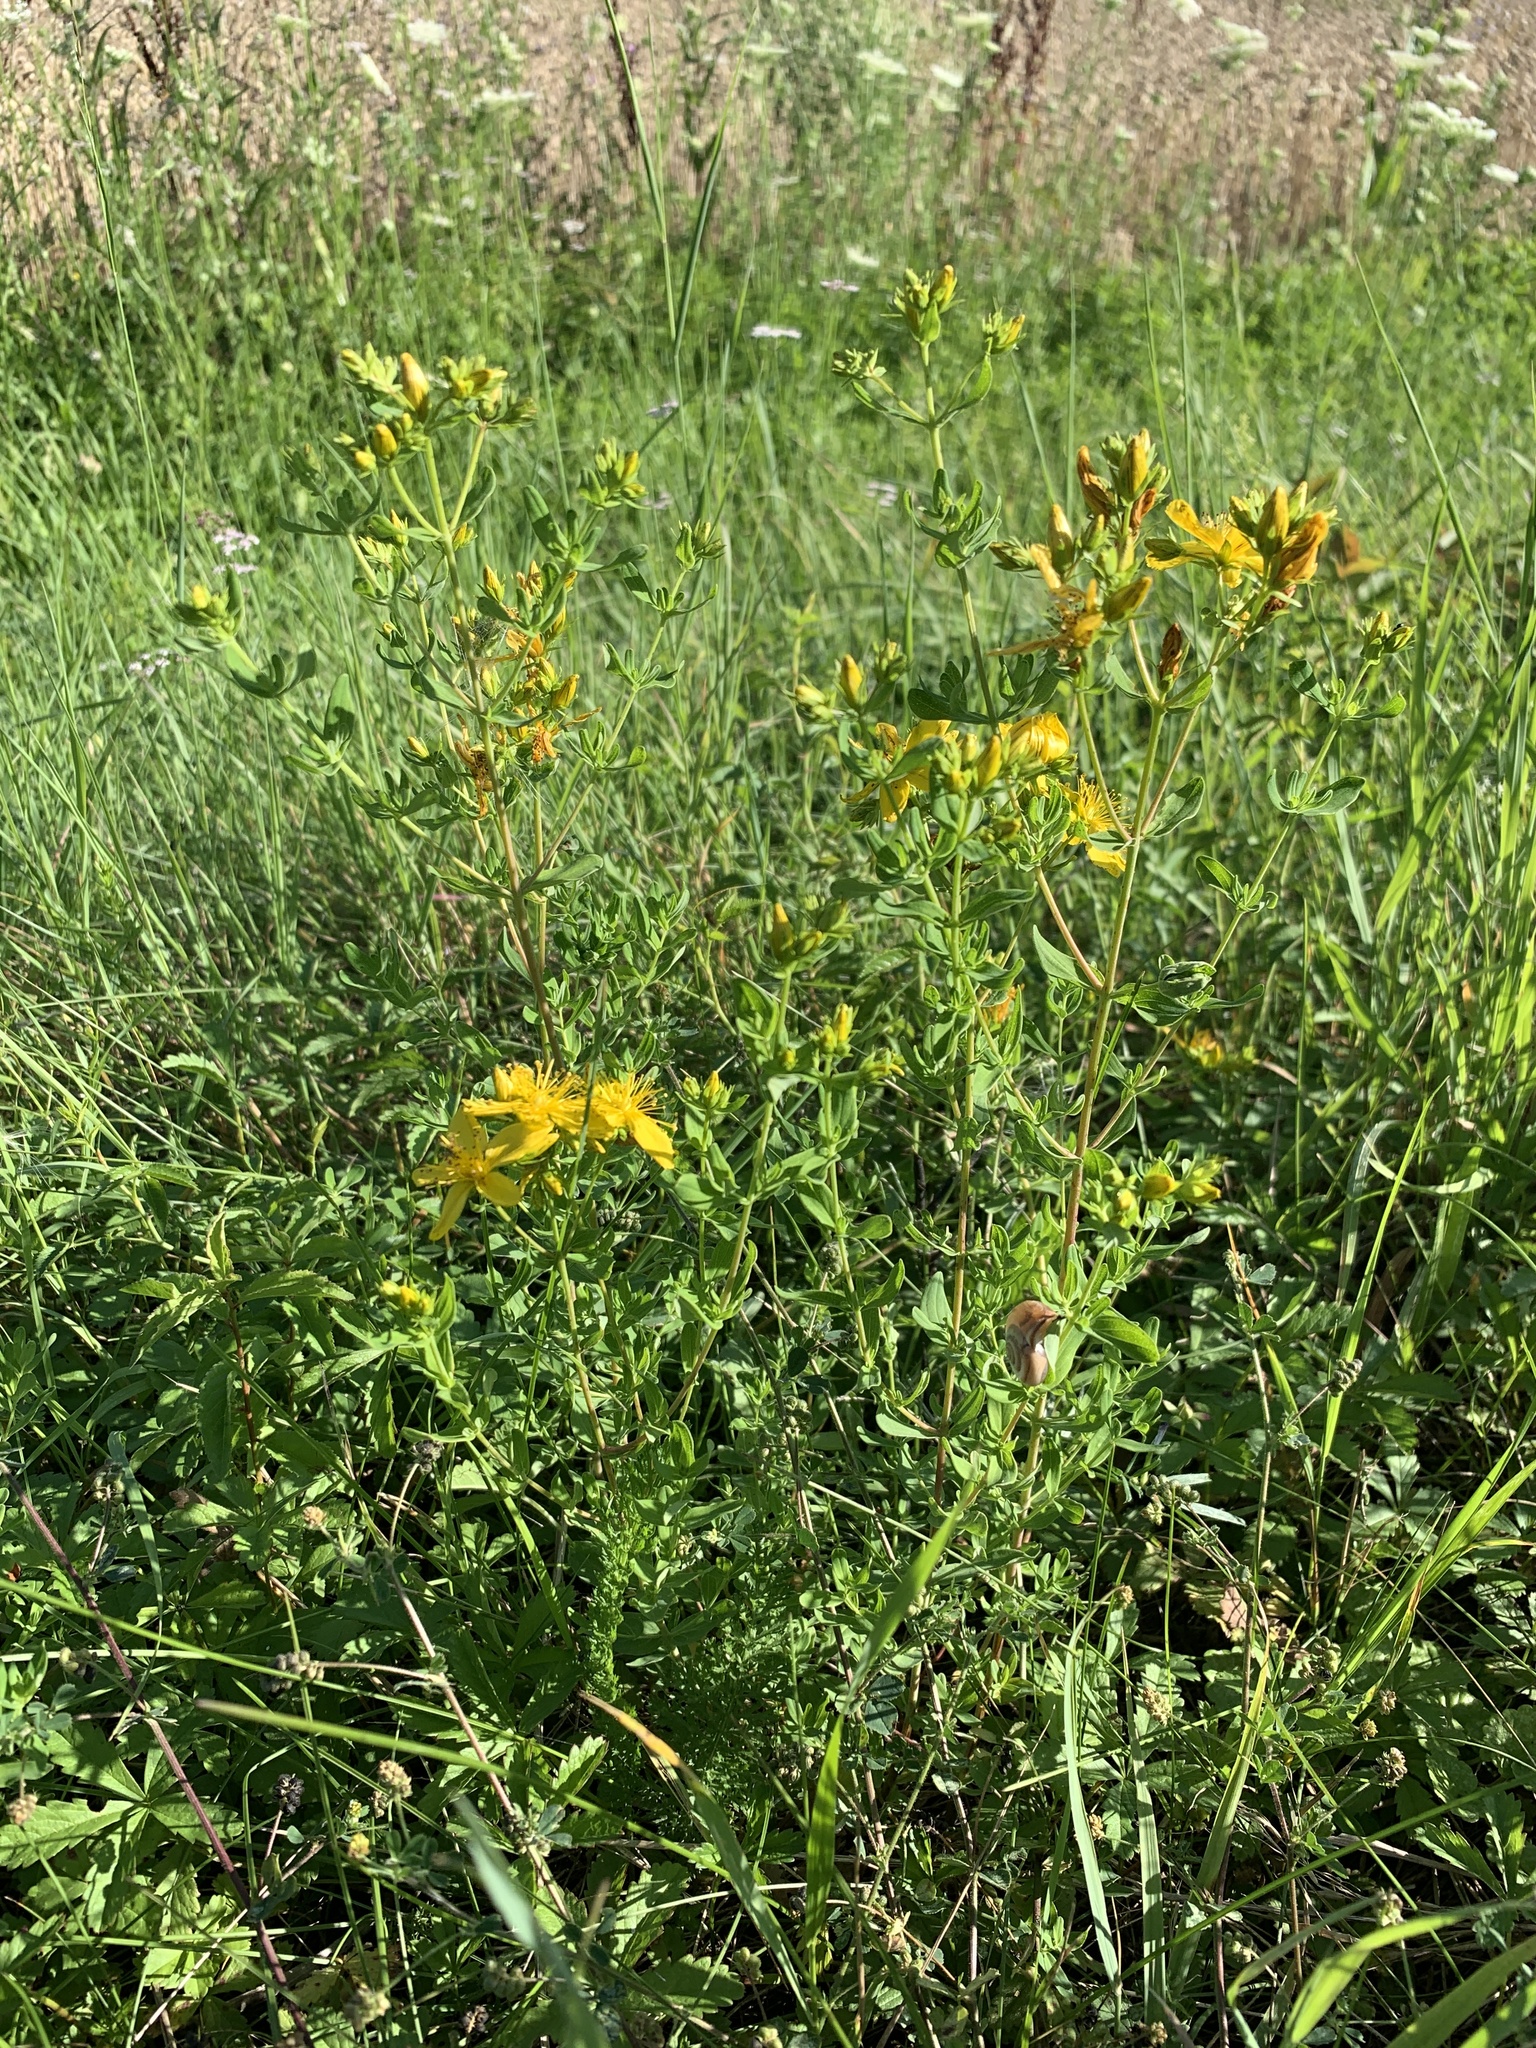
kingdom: Plantae
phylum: Tracheophyta
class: Magnoliopsida
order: Malpighiales
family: Hypericaceae
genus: Hypericum
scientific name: Hypericum perforatum
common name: Common st. johnswort
